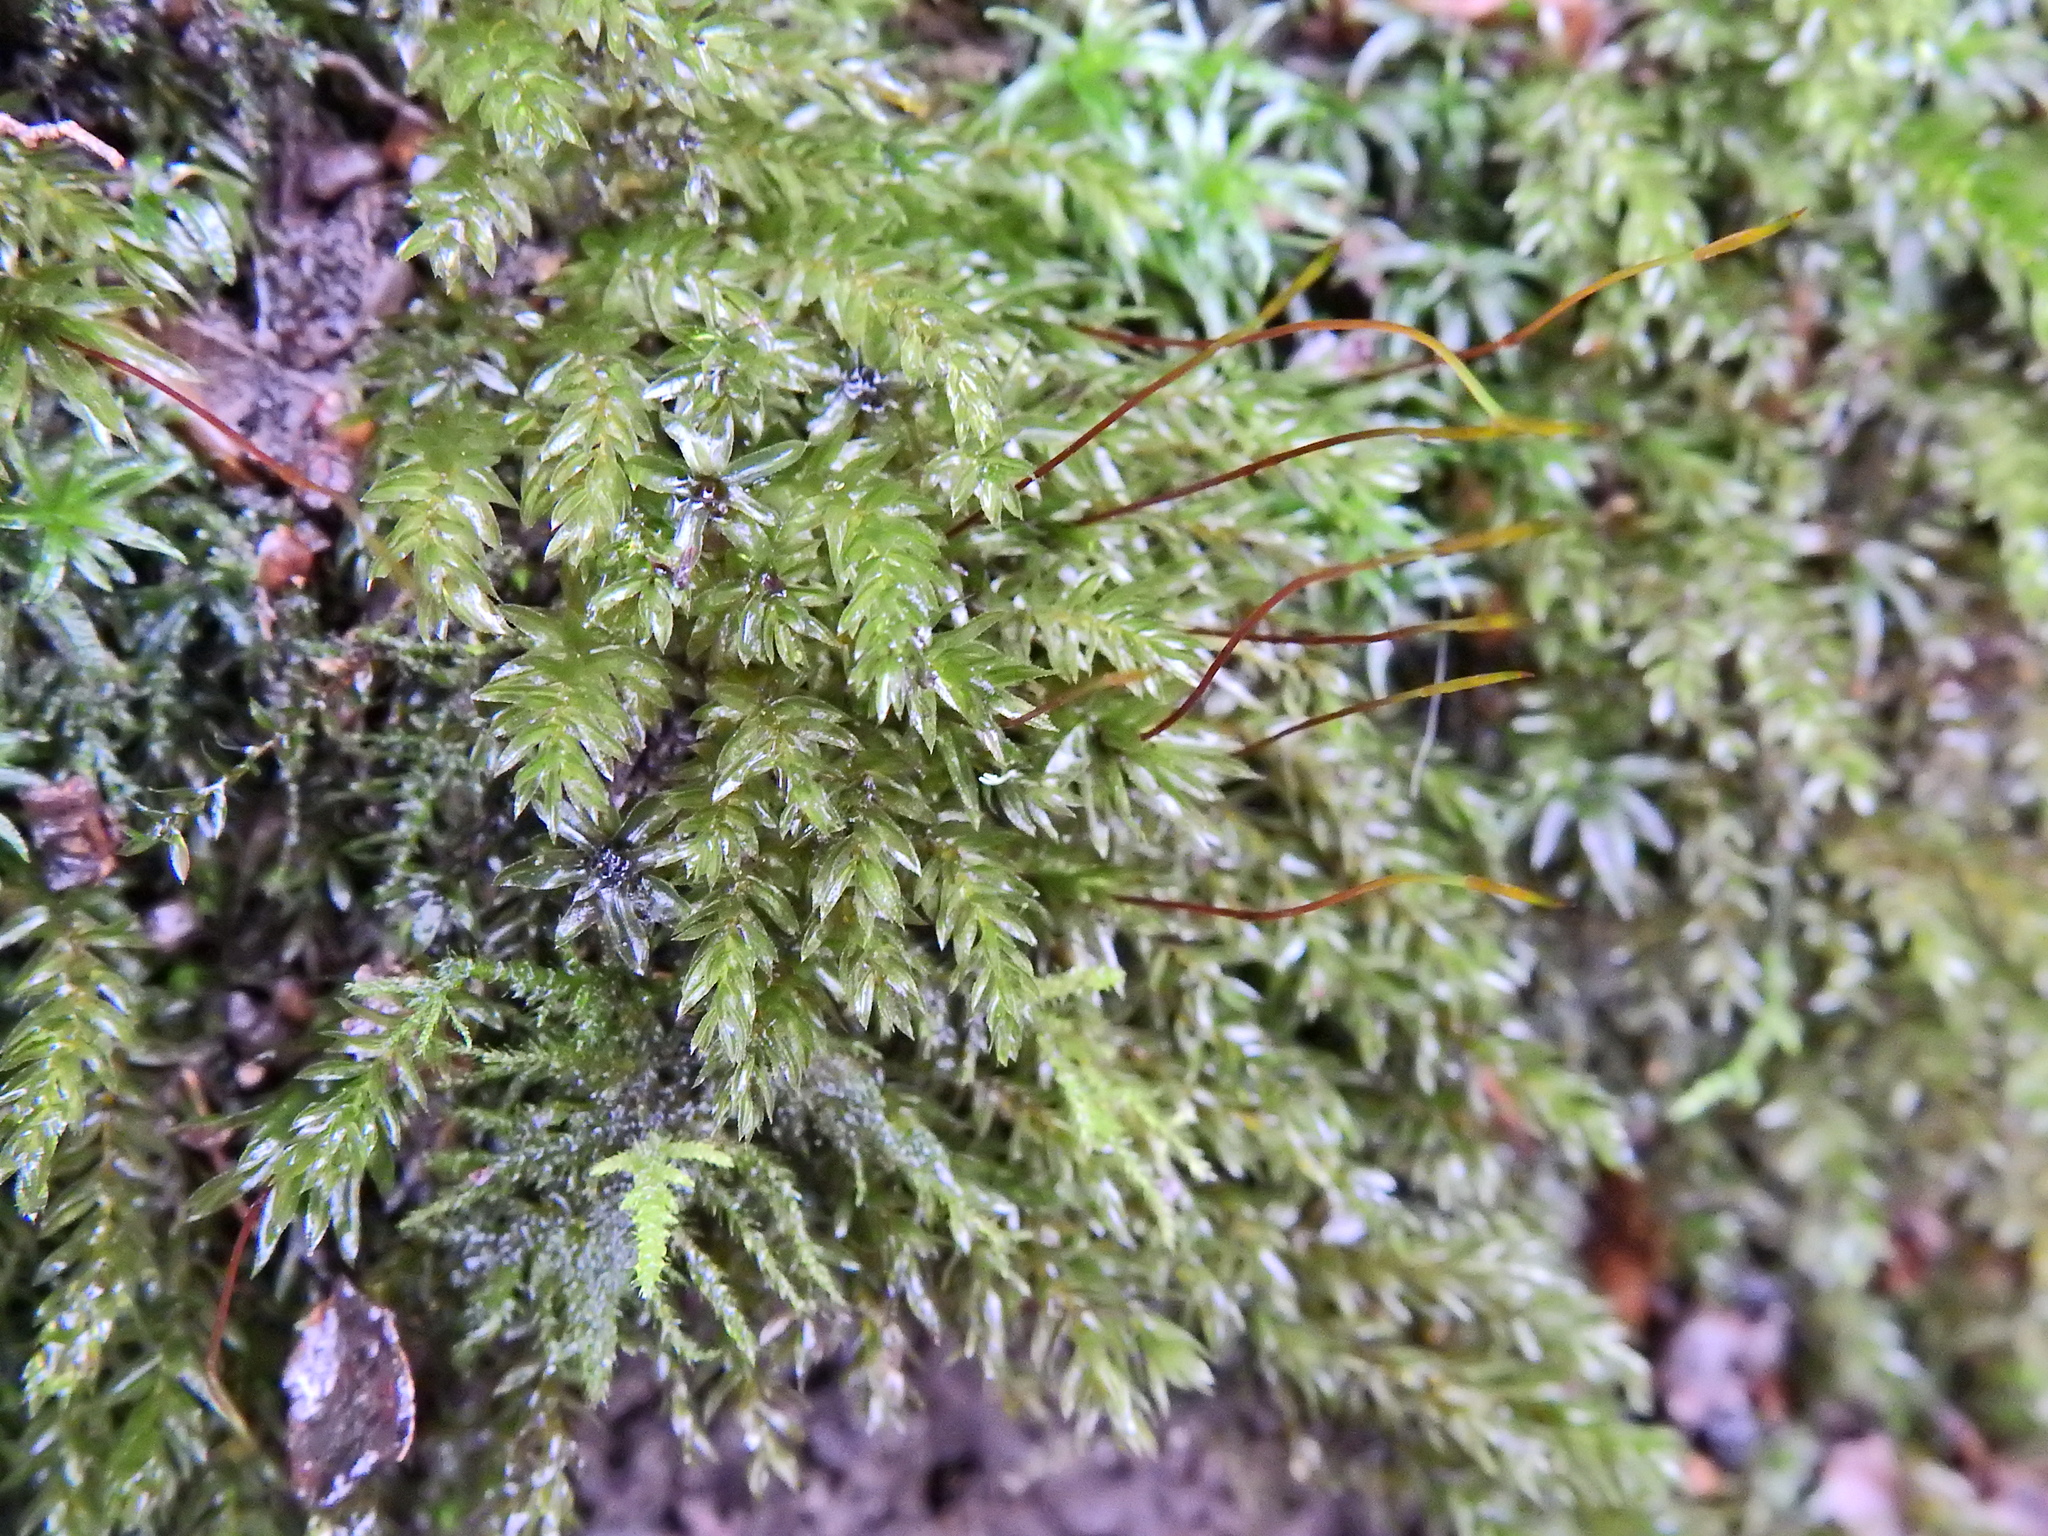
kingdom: Plantae
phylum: Bryophyta
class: Bryopsida
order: Bryales
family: Mniaceae
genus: Mnium
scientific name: Mnium hornum
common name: Swan's-neck leafy moss
